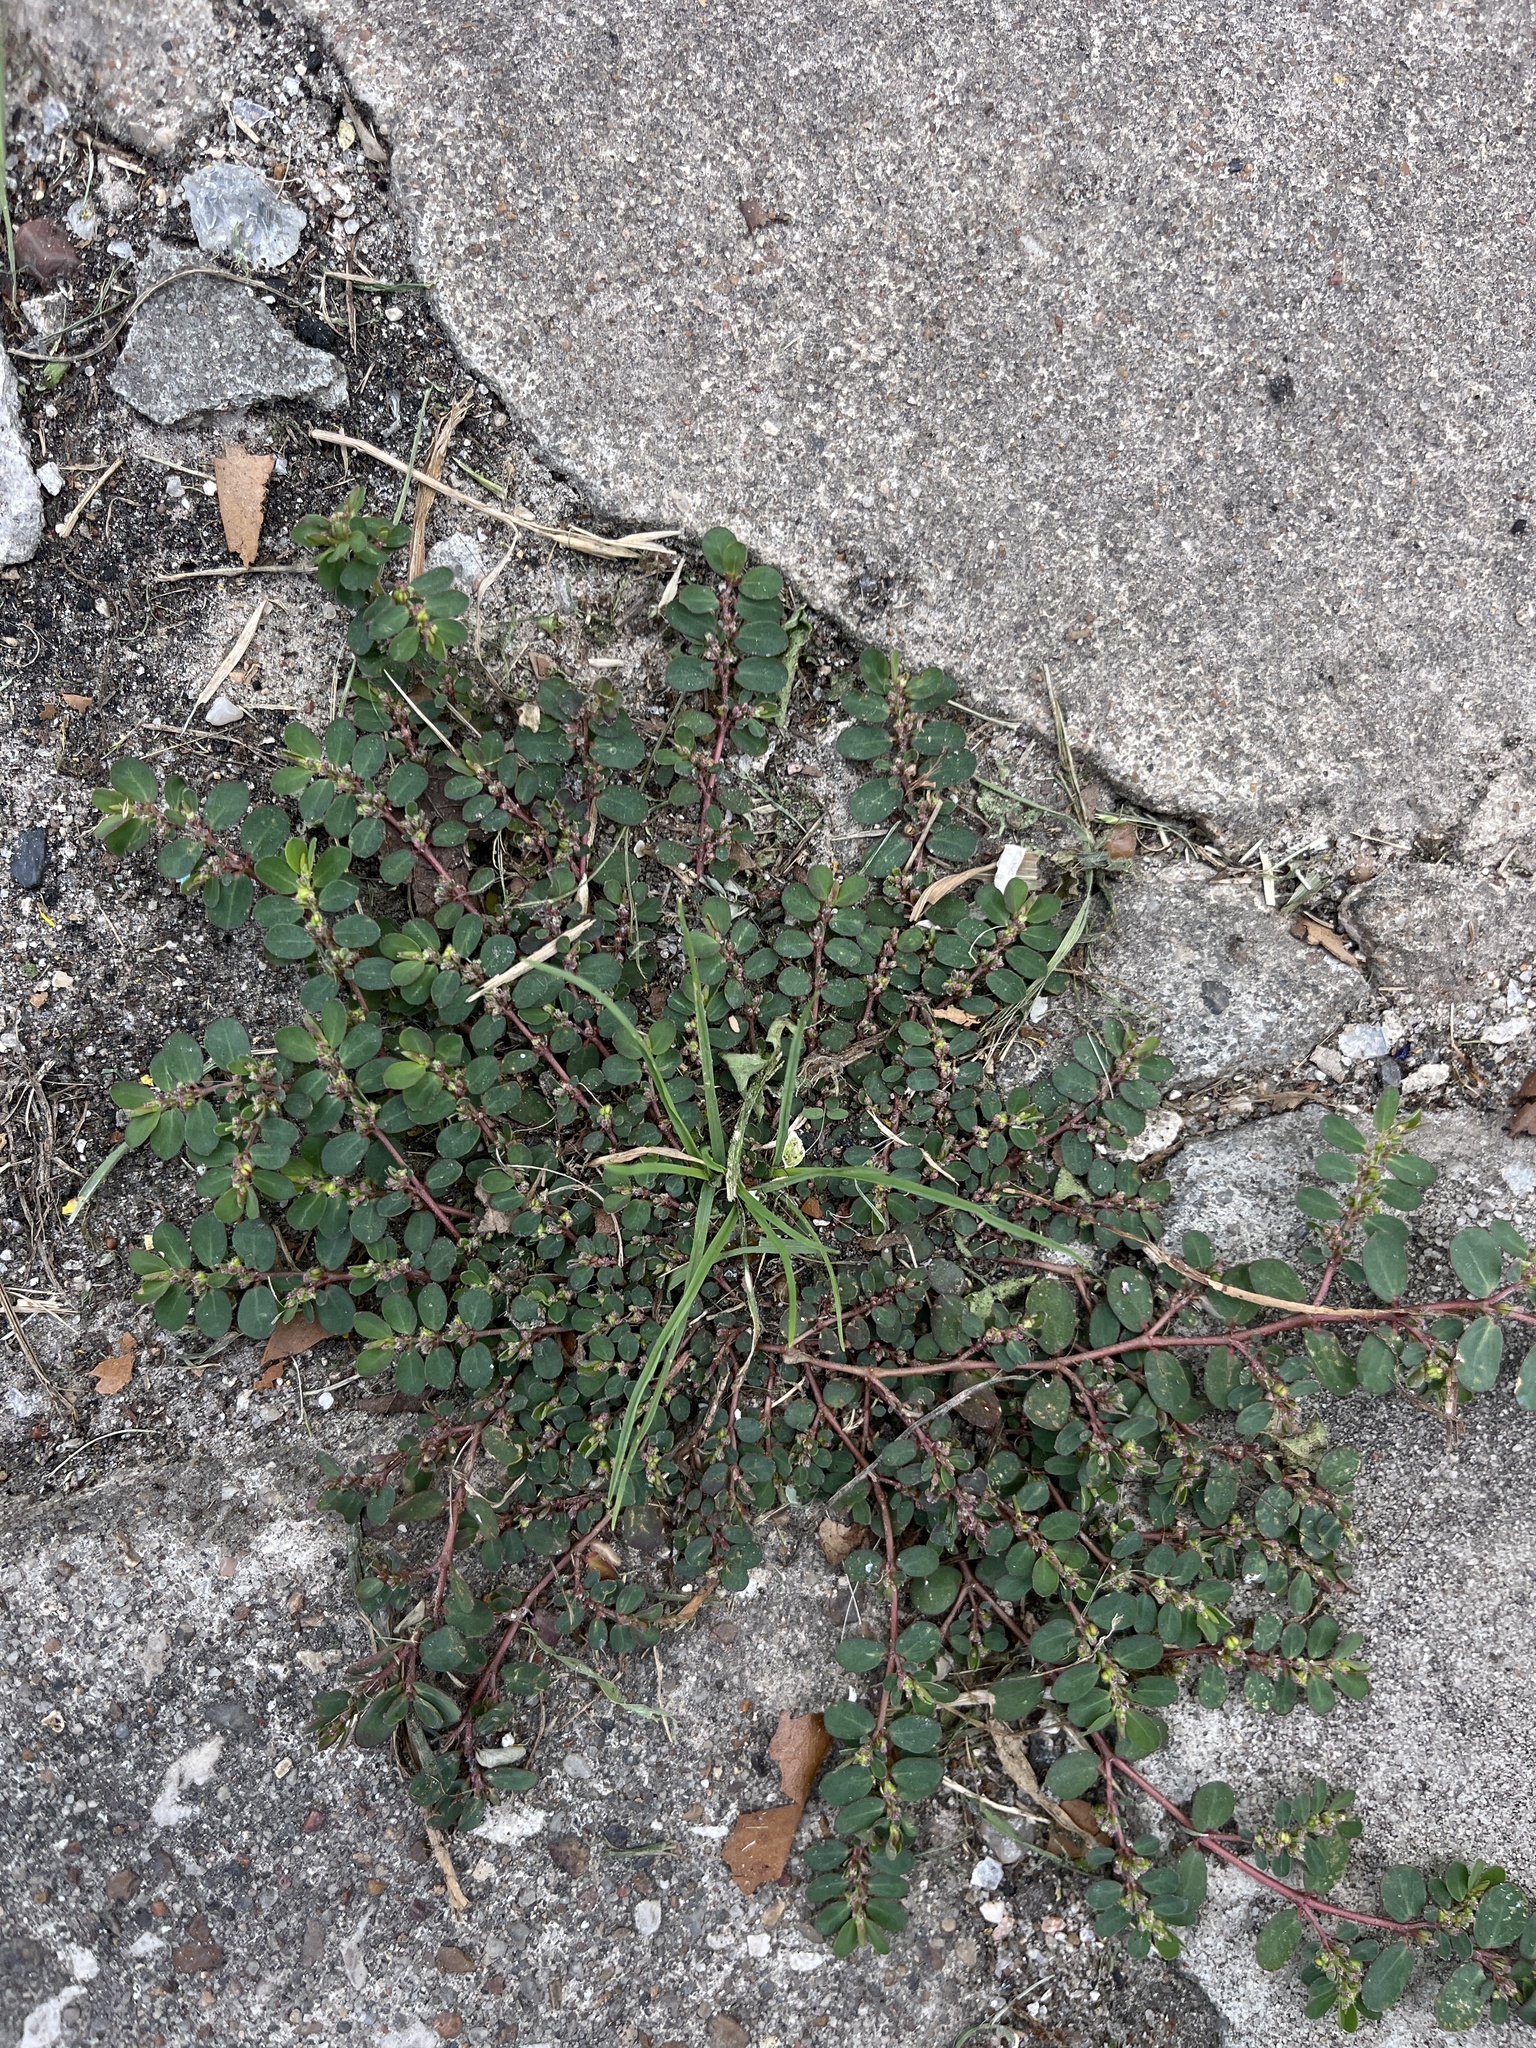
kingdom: Plantae
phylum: Tracheophyta
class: Magnoliopsida
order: Malpighiales
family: Euphorbiaceae
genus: Euphorbia
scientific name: Euphorbia prostrata
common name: Prostrate sandmat
